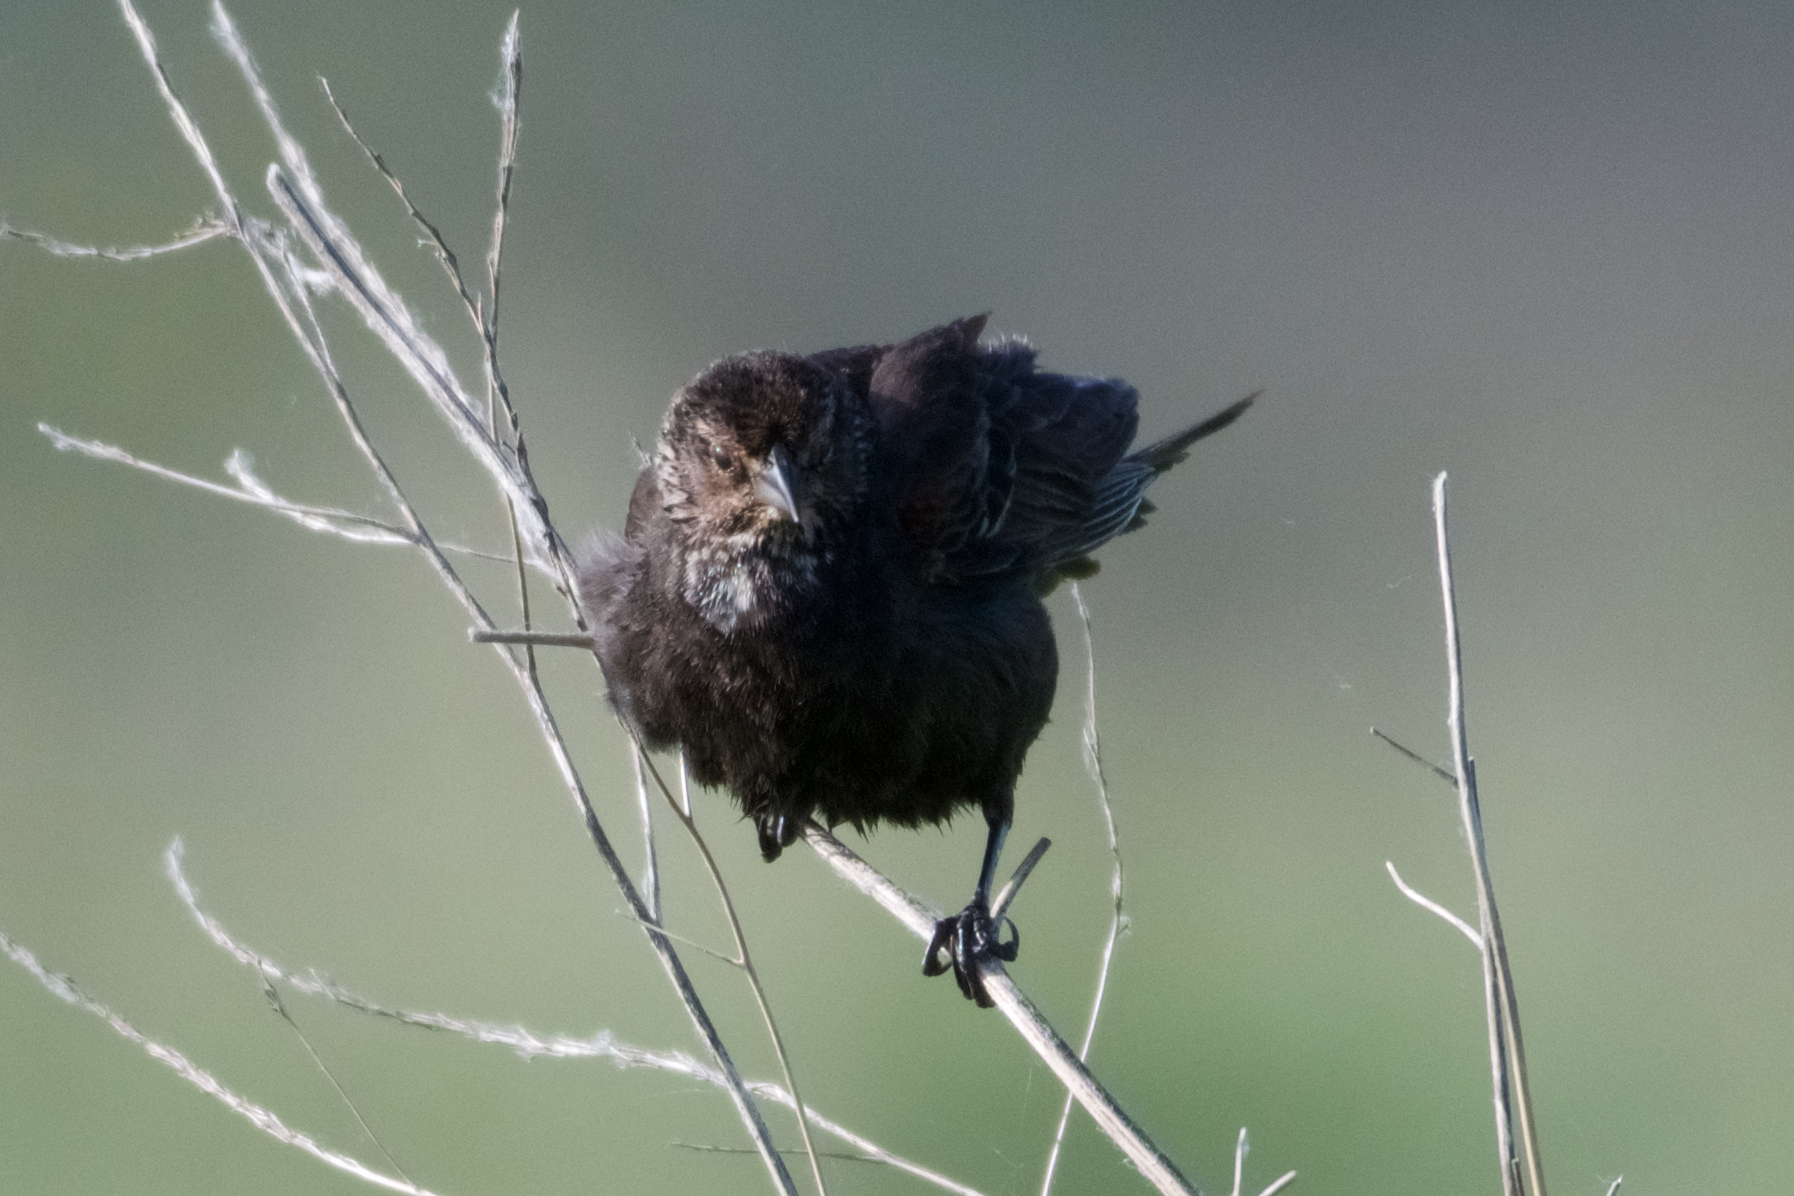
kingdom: Animalia
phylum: Chordata
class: Aves
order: Passeriformes
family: Icteridae
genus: Agelaius
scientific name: Agelaius phoeniceus
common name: Red-winged blackbird
